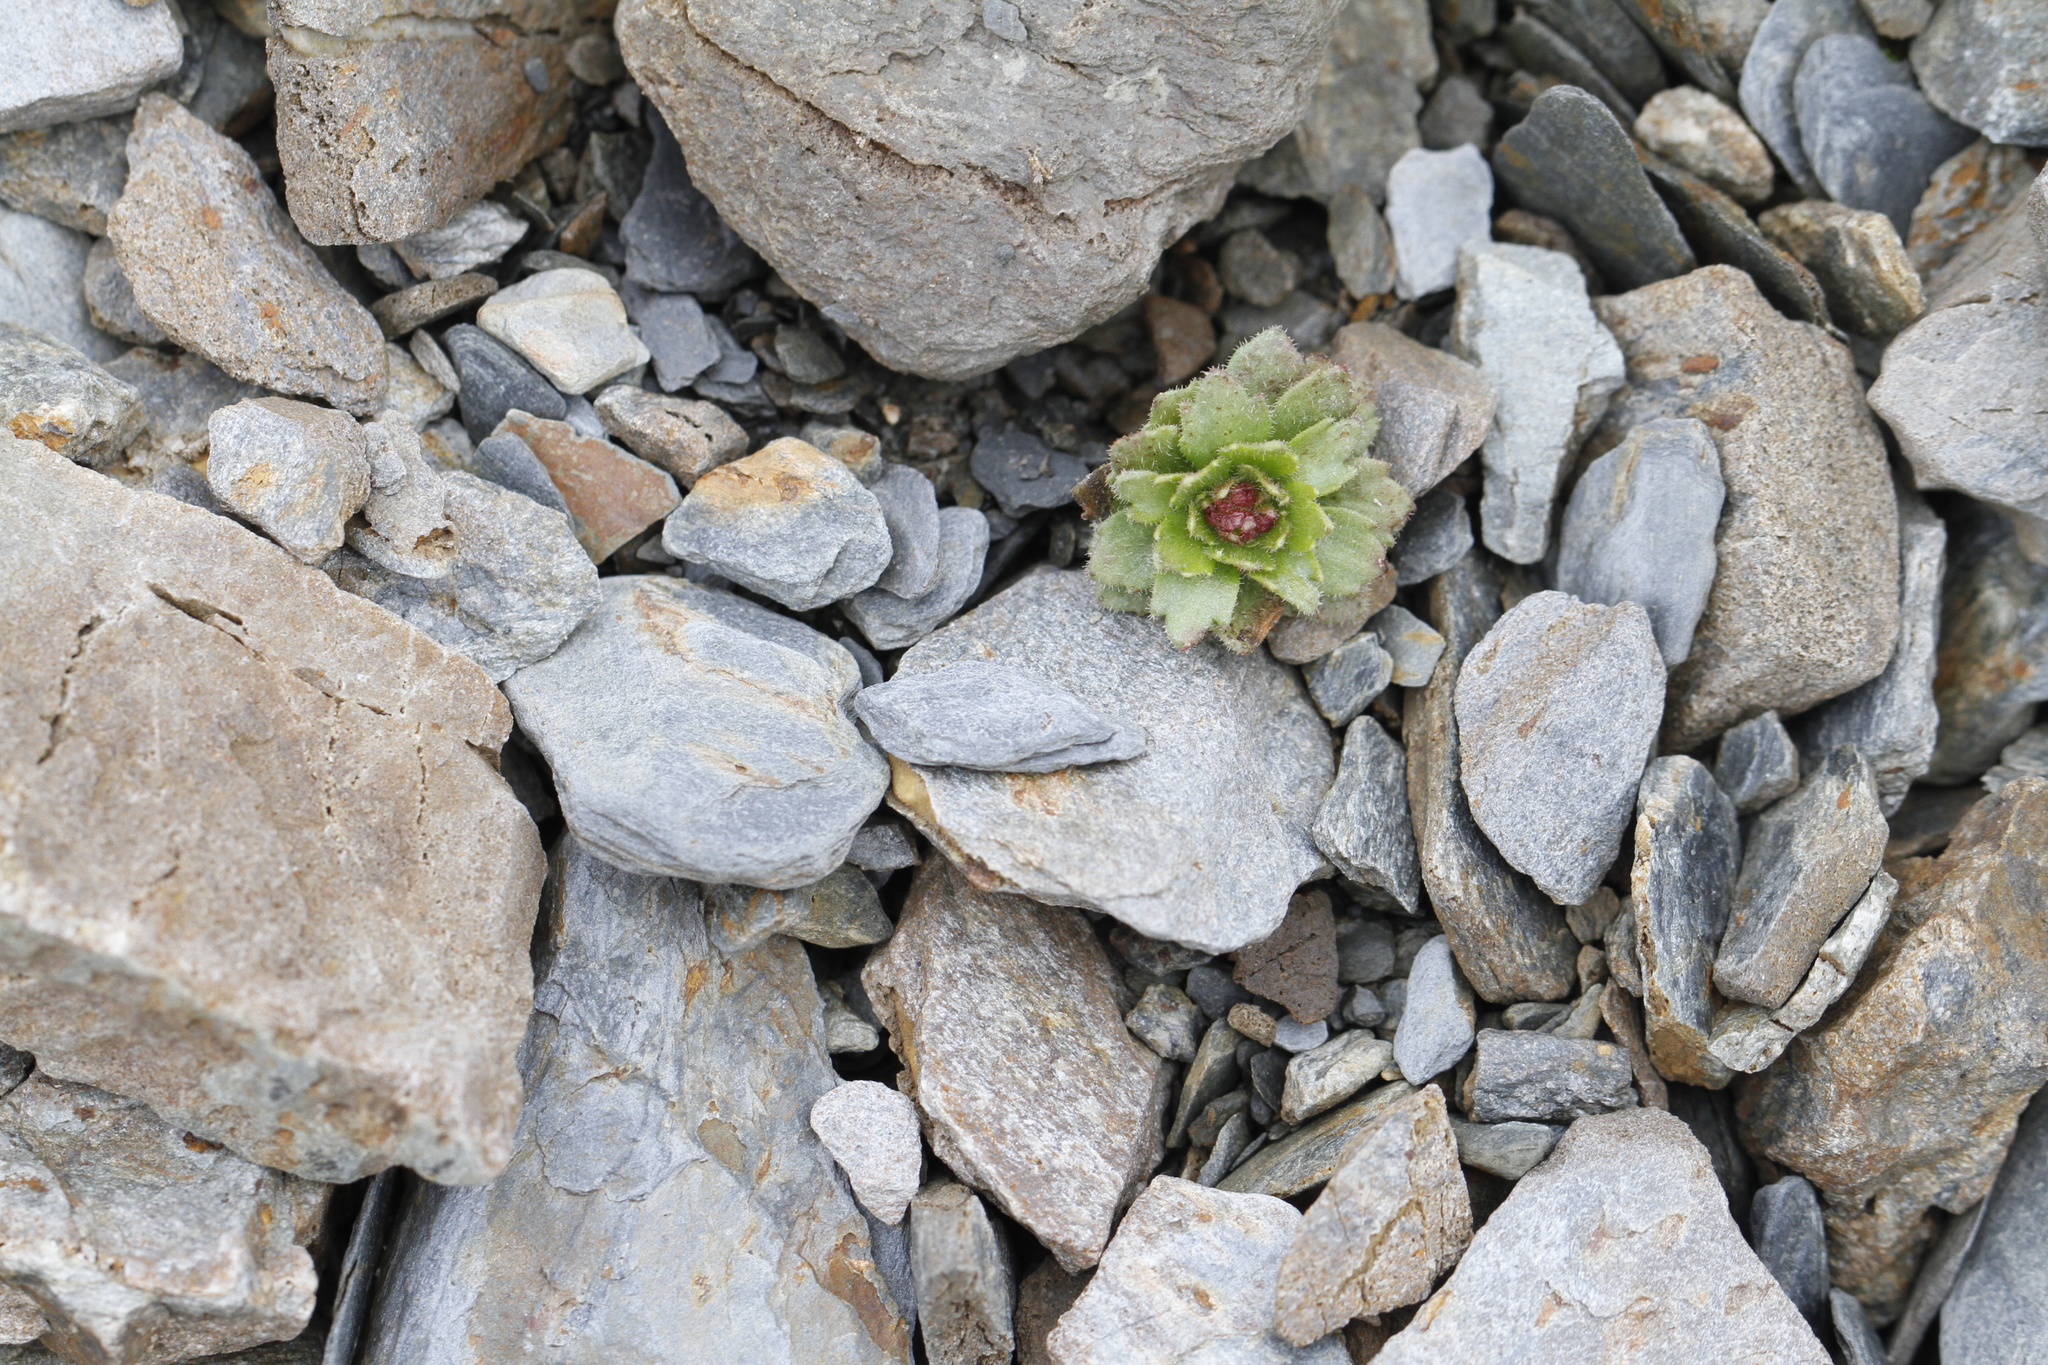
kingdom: Plantae
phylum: Tracheophyta
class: Magnoliopsida
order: Saxifragales
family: Saxifragaceae
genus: Saxifraga
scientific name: Saxifraga adscendens
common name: Ascending saxifrage
